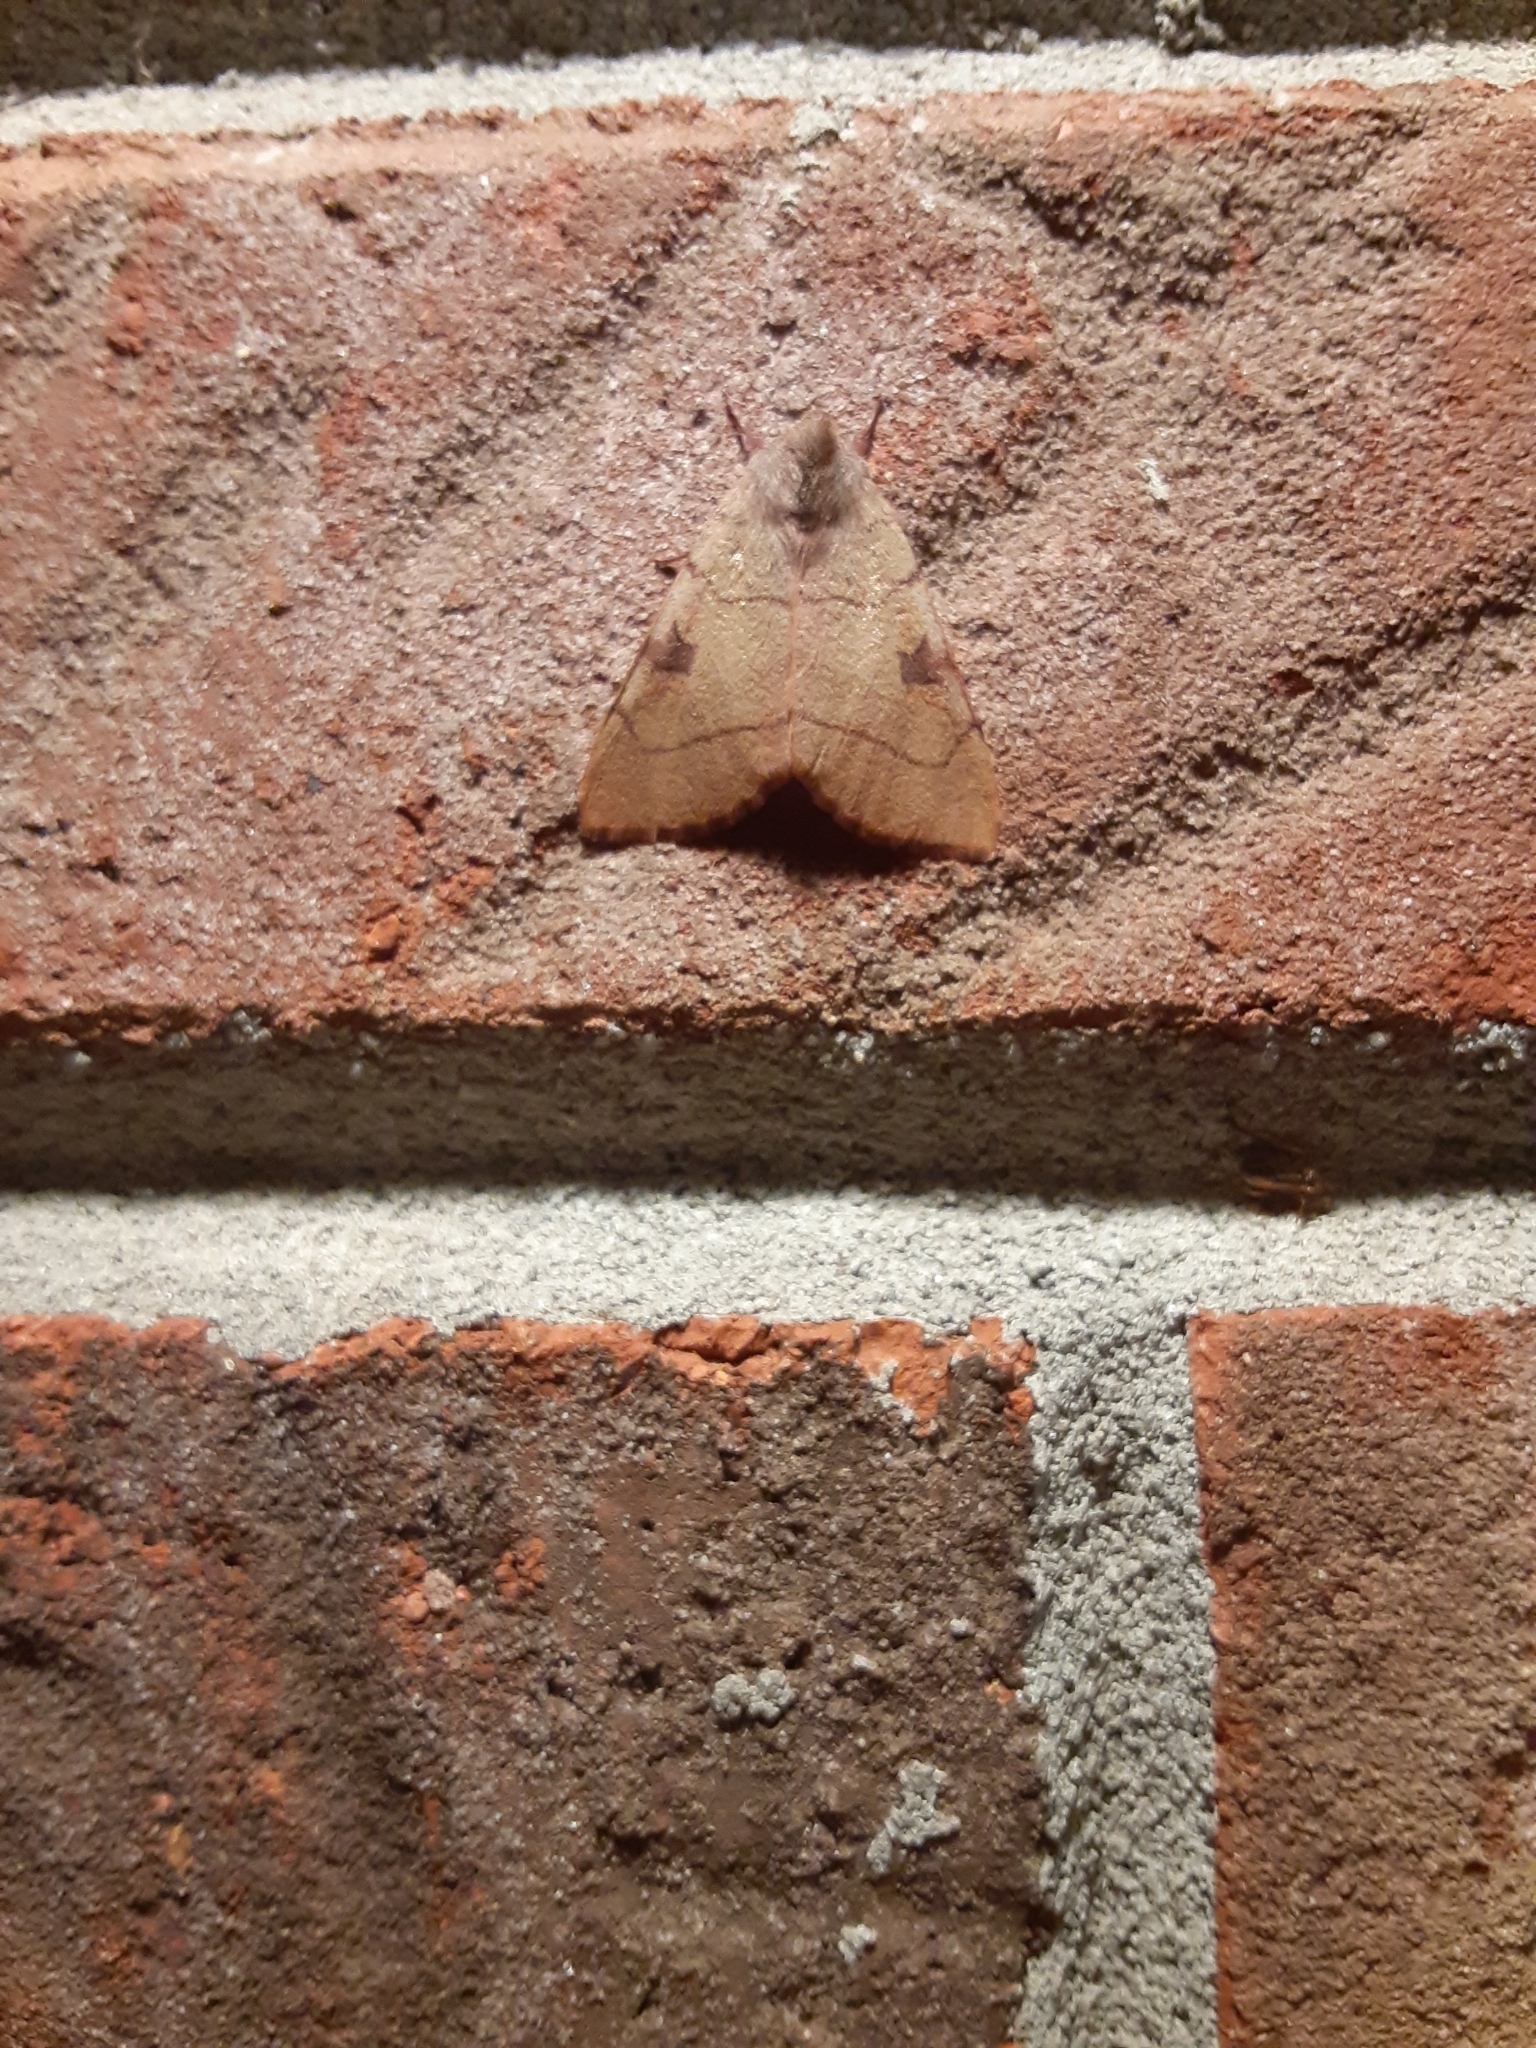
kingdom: Animalia
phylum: Arthropoda
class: Insecta
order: Lepidoptera
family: Noctuidae
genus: Choephora
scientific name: Choephora fungorum
